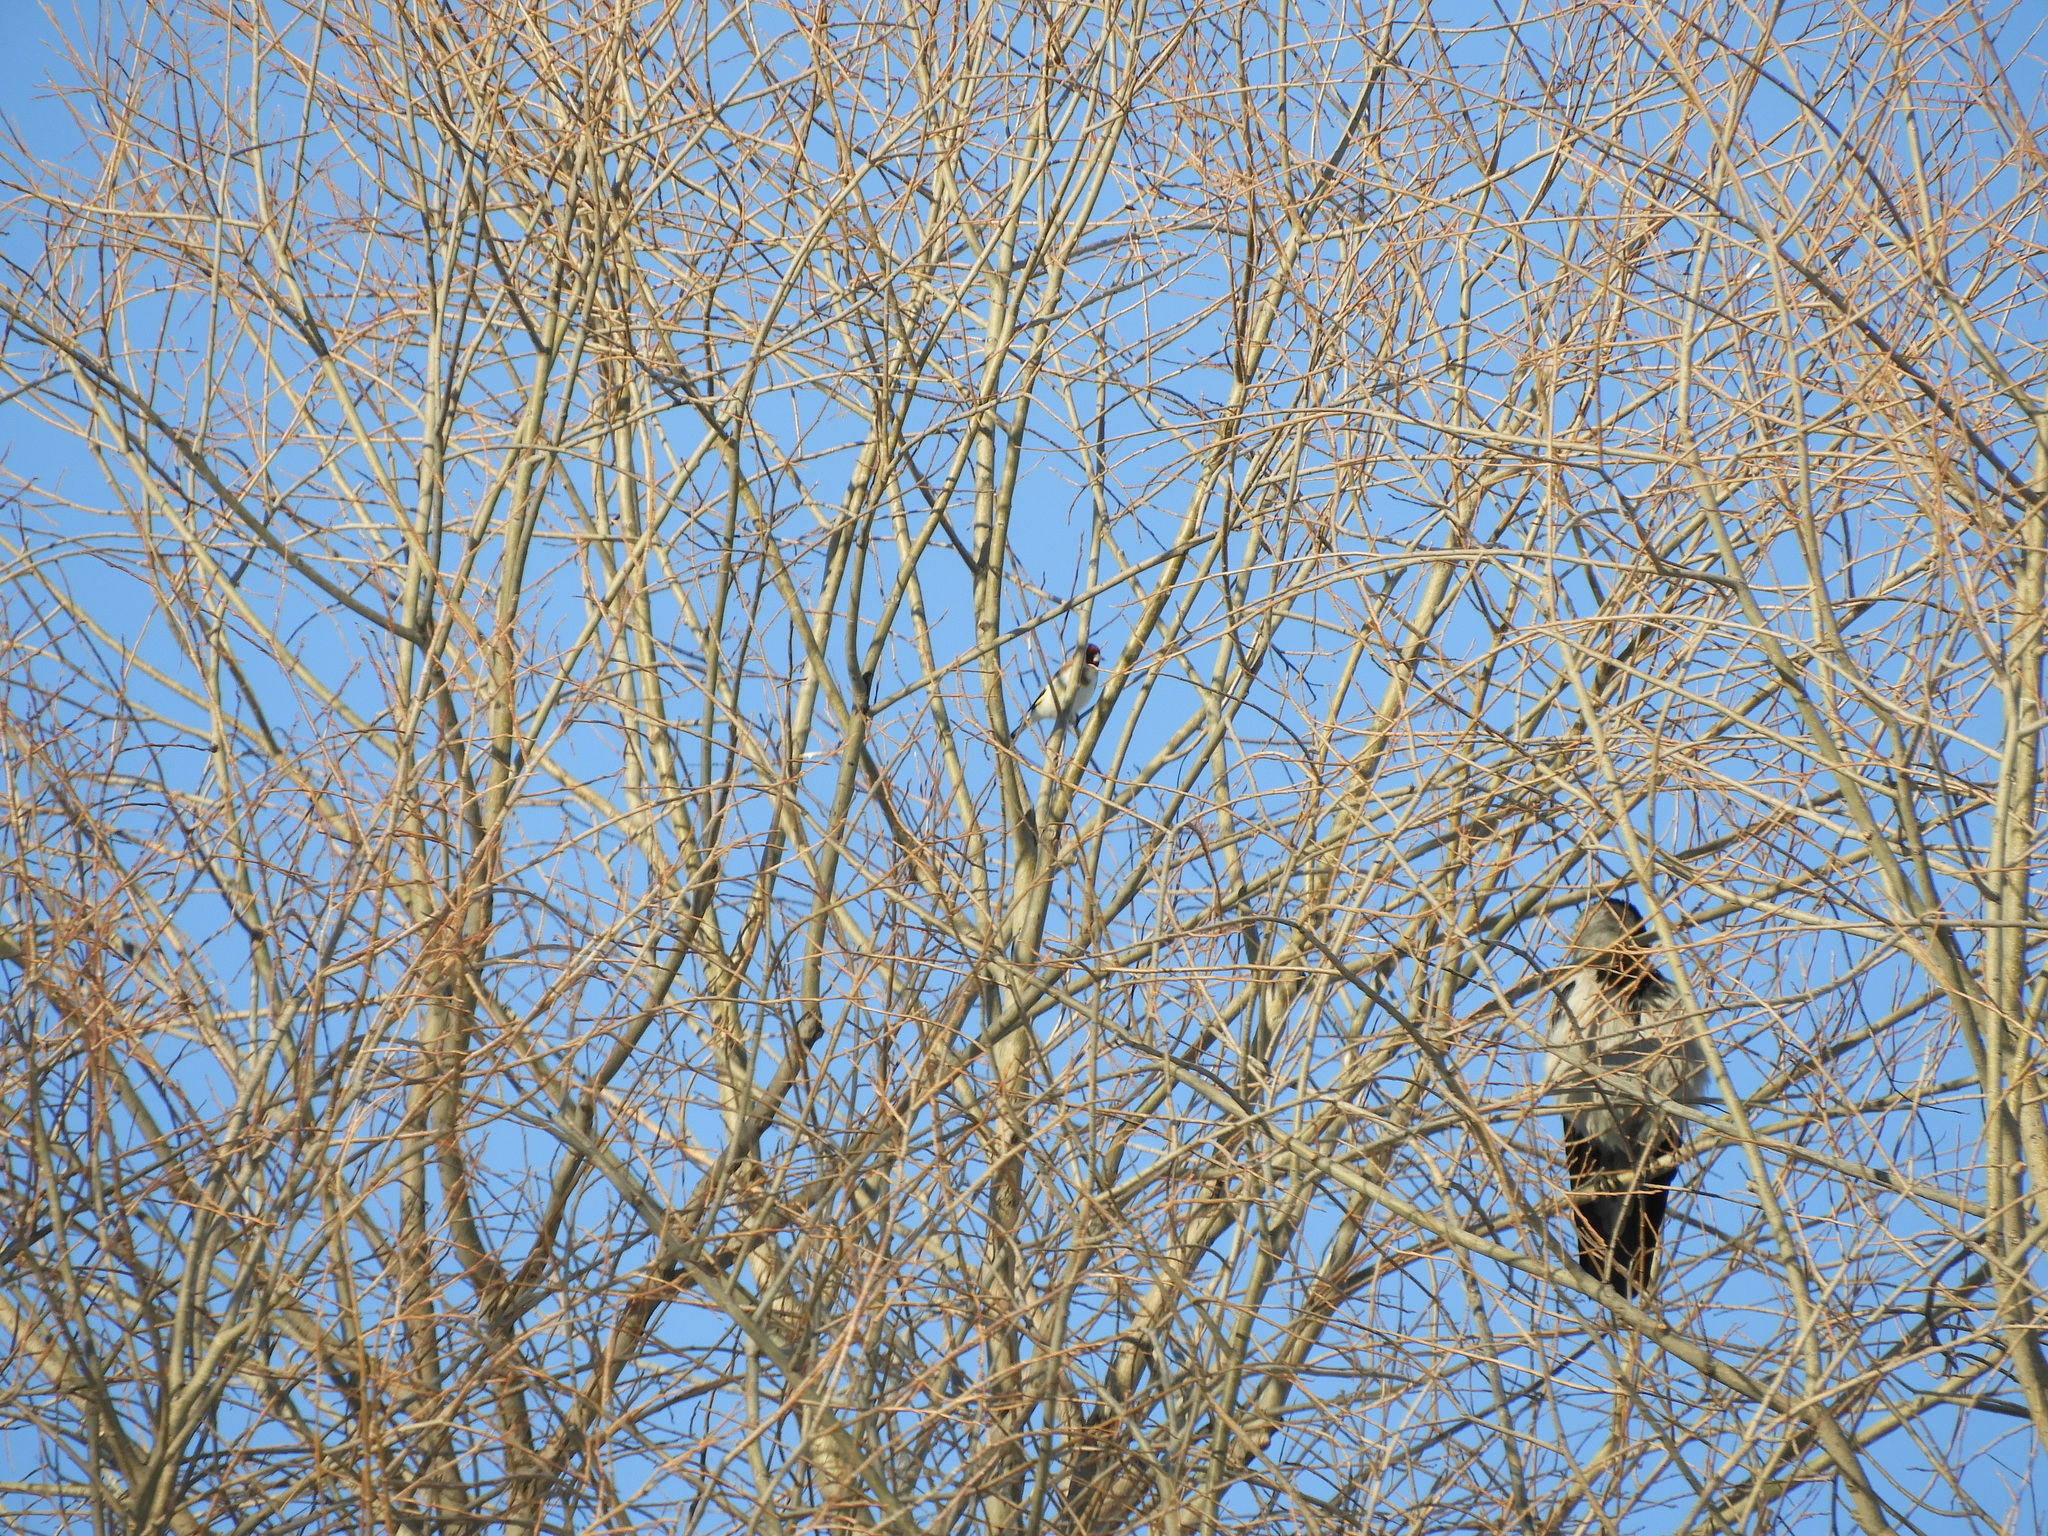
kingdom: Animalia
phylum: Chordata
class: Aves
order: Passeriformes
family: Fringillidae
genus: Carduelis
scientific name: Carduelis carduelis
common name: European goldfinch
